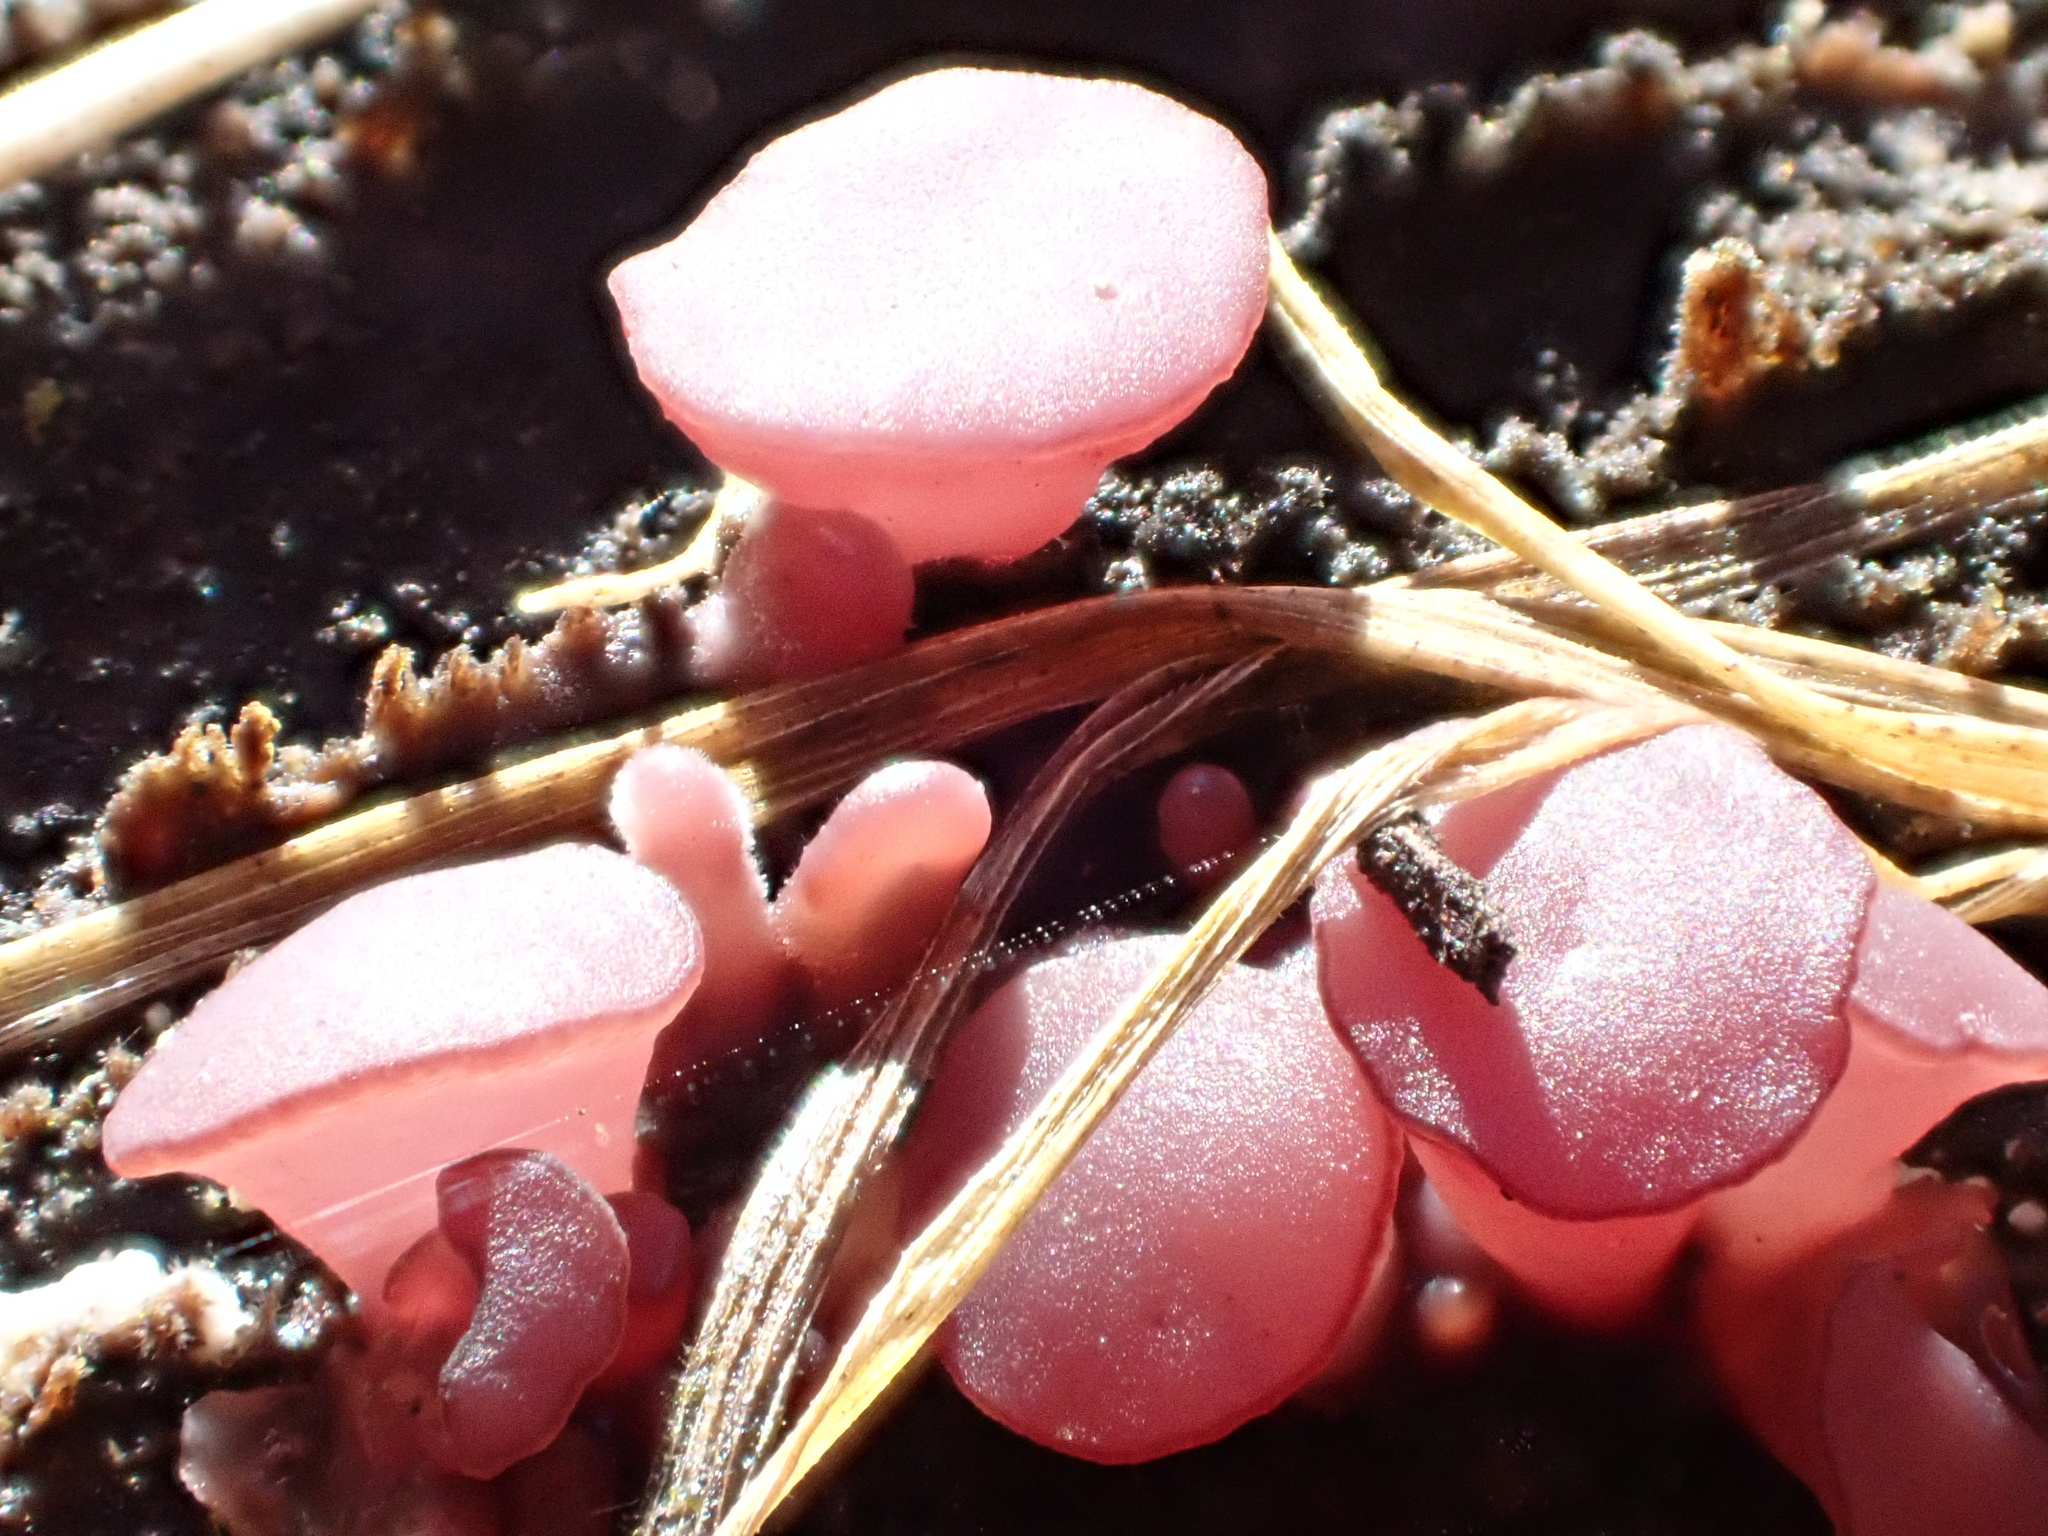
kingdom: Fungi
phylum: Ascomycota
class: Leotiomycetes
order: Helotiales
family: Gelatinodiscaceae
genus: Ascocoryne
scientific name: Ascocoryne sarcoides
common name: Purple jellydisc
